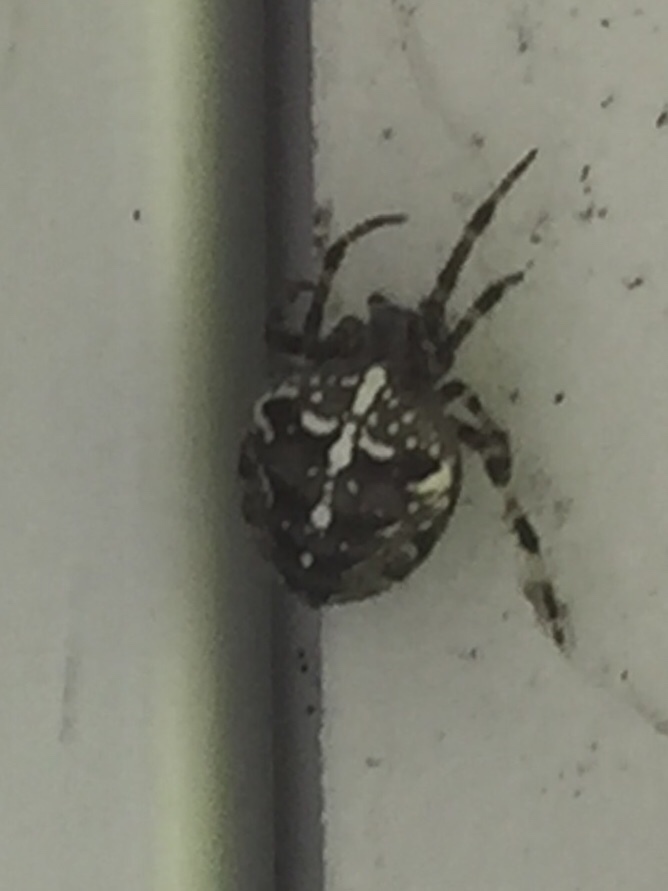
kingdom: Animalia
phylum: Arthropoda
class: Arachnida
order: Araneae
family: Araneidae
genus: Araneus
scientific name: Araneus diadematus
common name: Cross orbweaver
